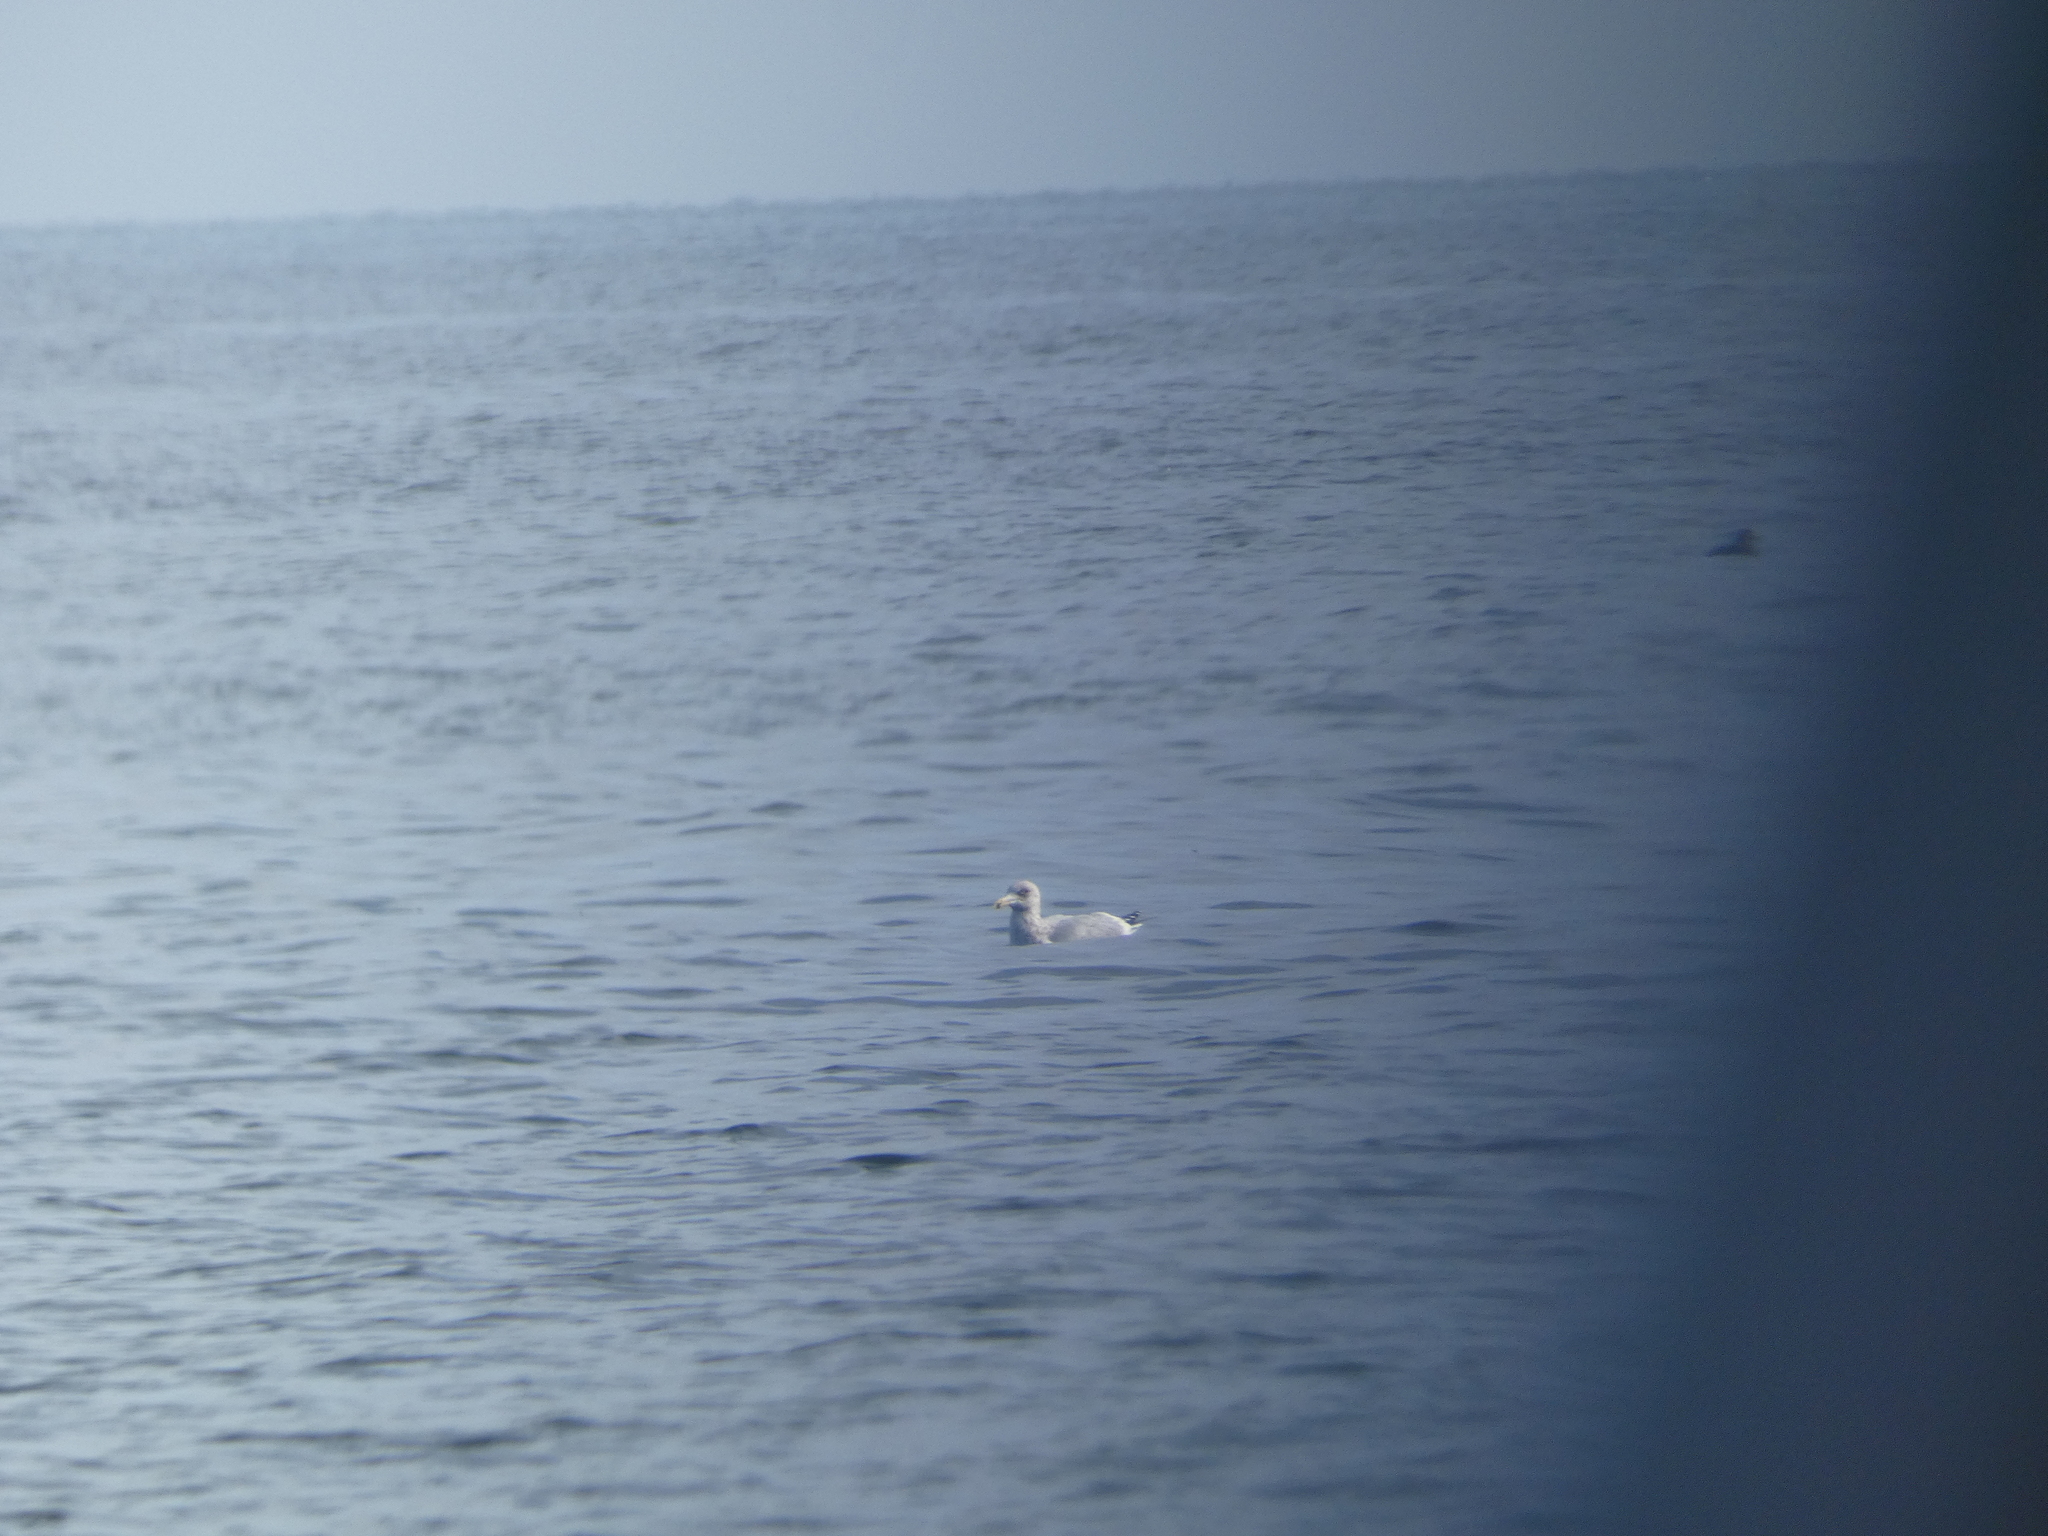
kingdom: Animalia
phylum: Chordata
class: Aves
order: Charadriiformes
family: Laridae
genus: Larus
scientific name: Larus argentatus
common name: Herring gull
